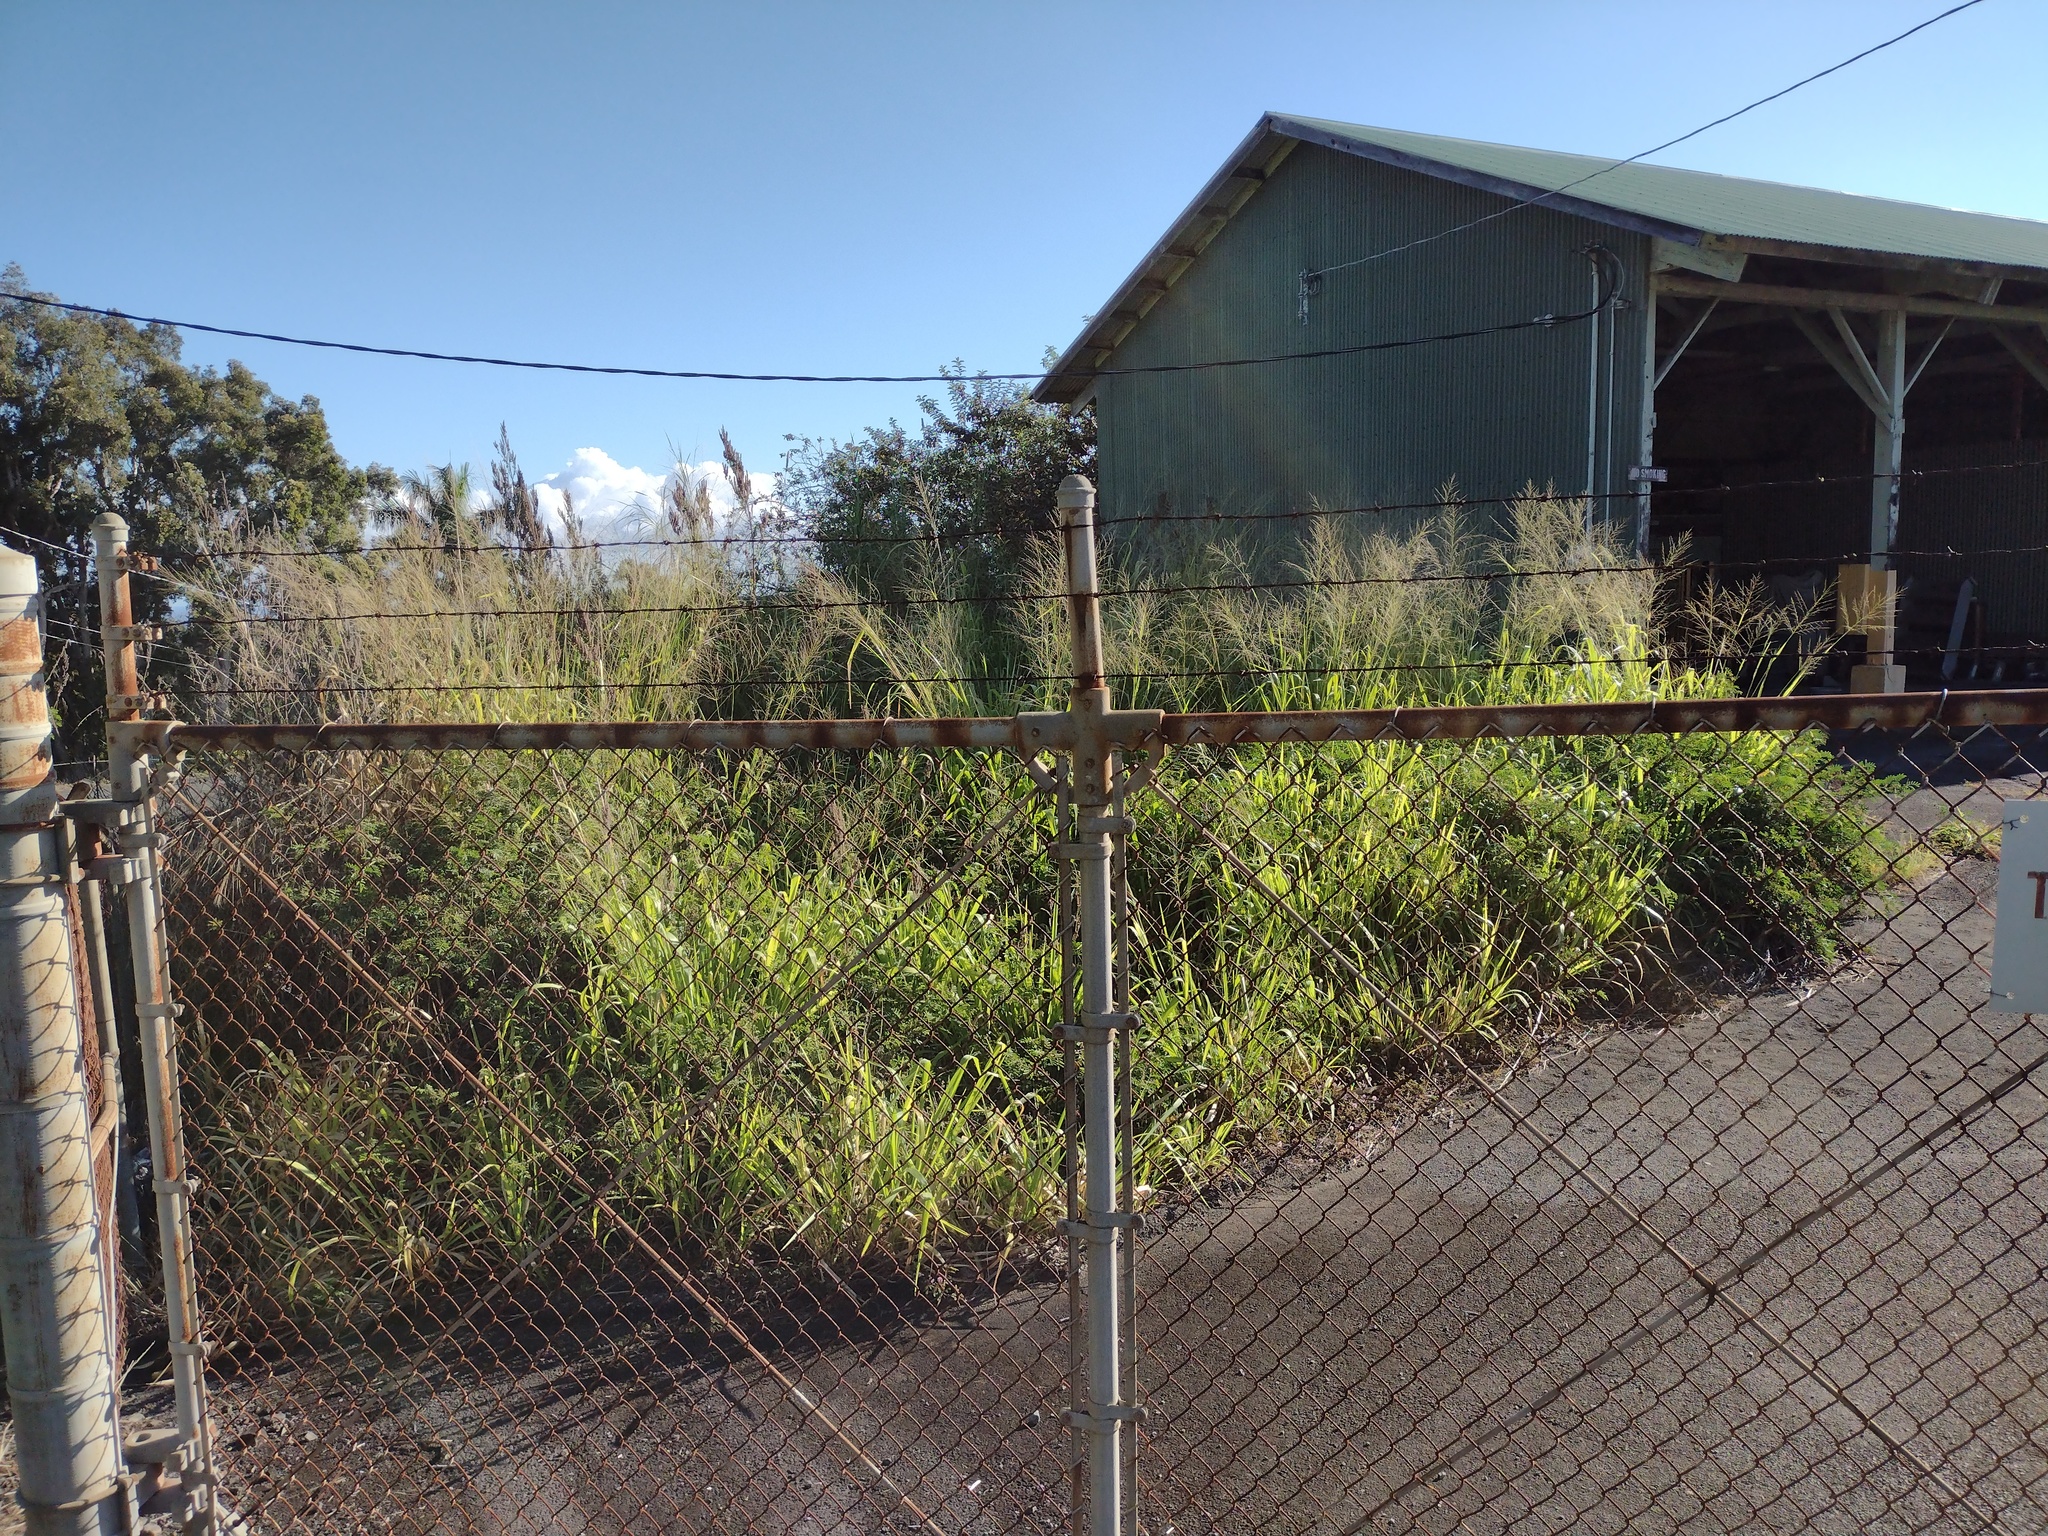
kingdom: Plantae
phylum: Tracheophyta
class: Liliopsida
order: Poales
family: Poaceae
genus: Megathyrsus
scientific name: Megathyrsus maximus
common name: Guineagrass
